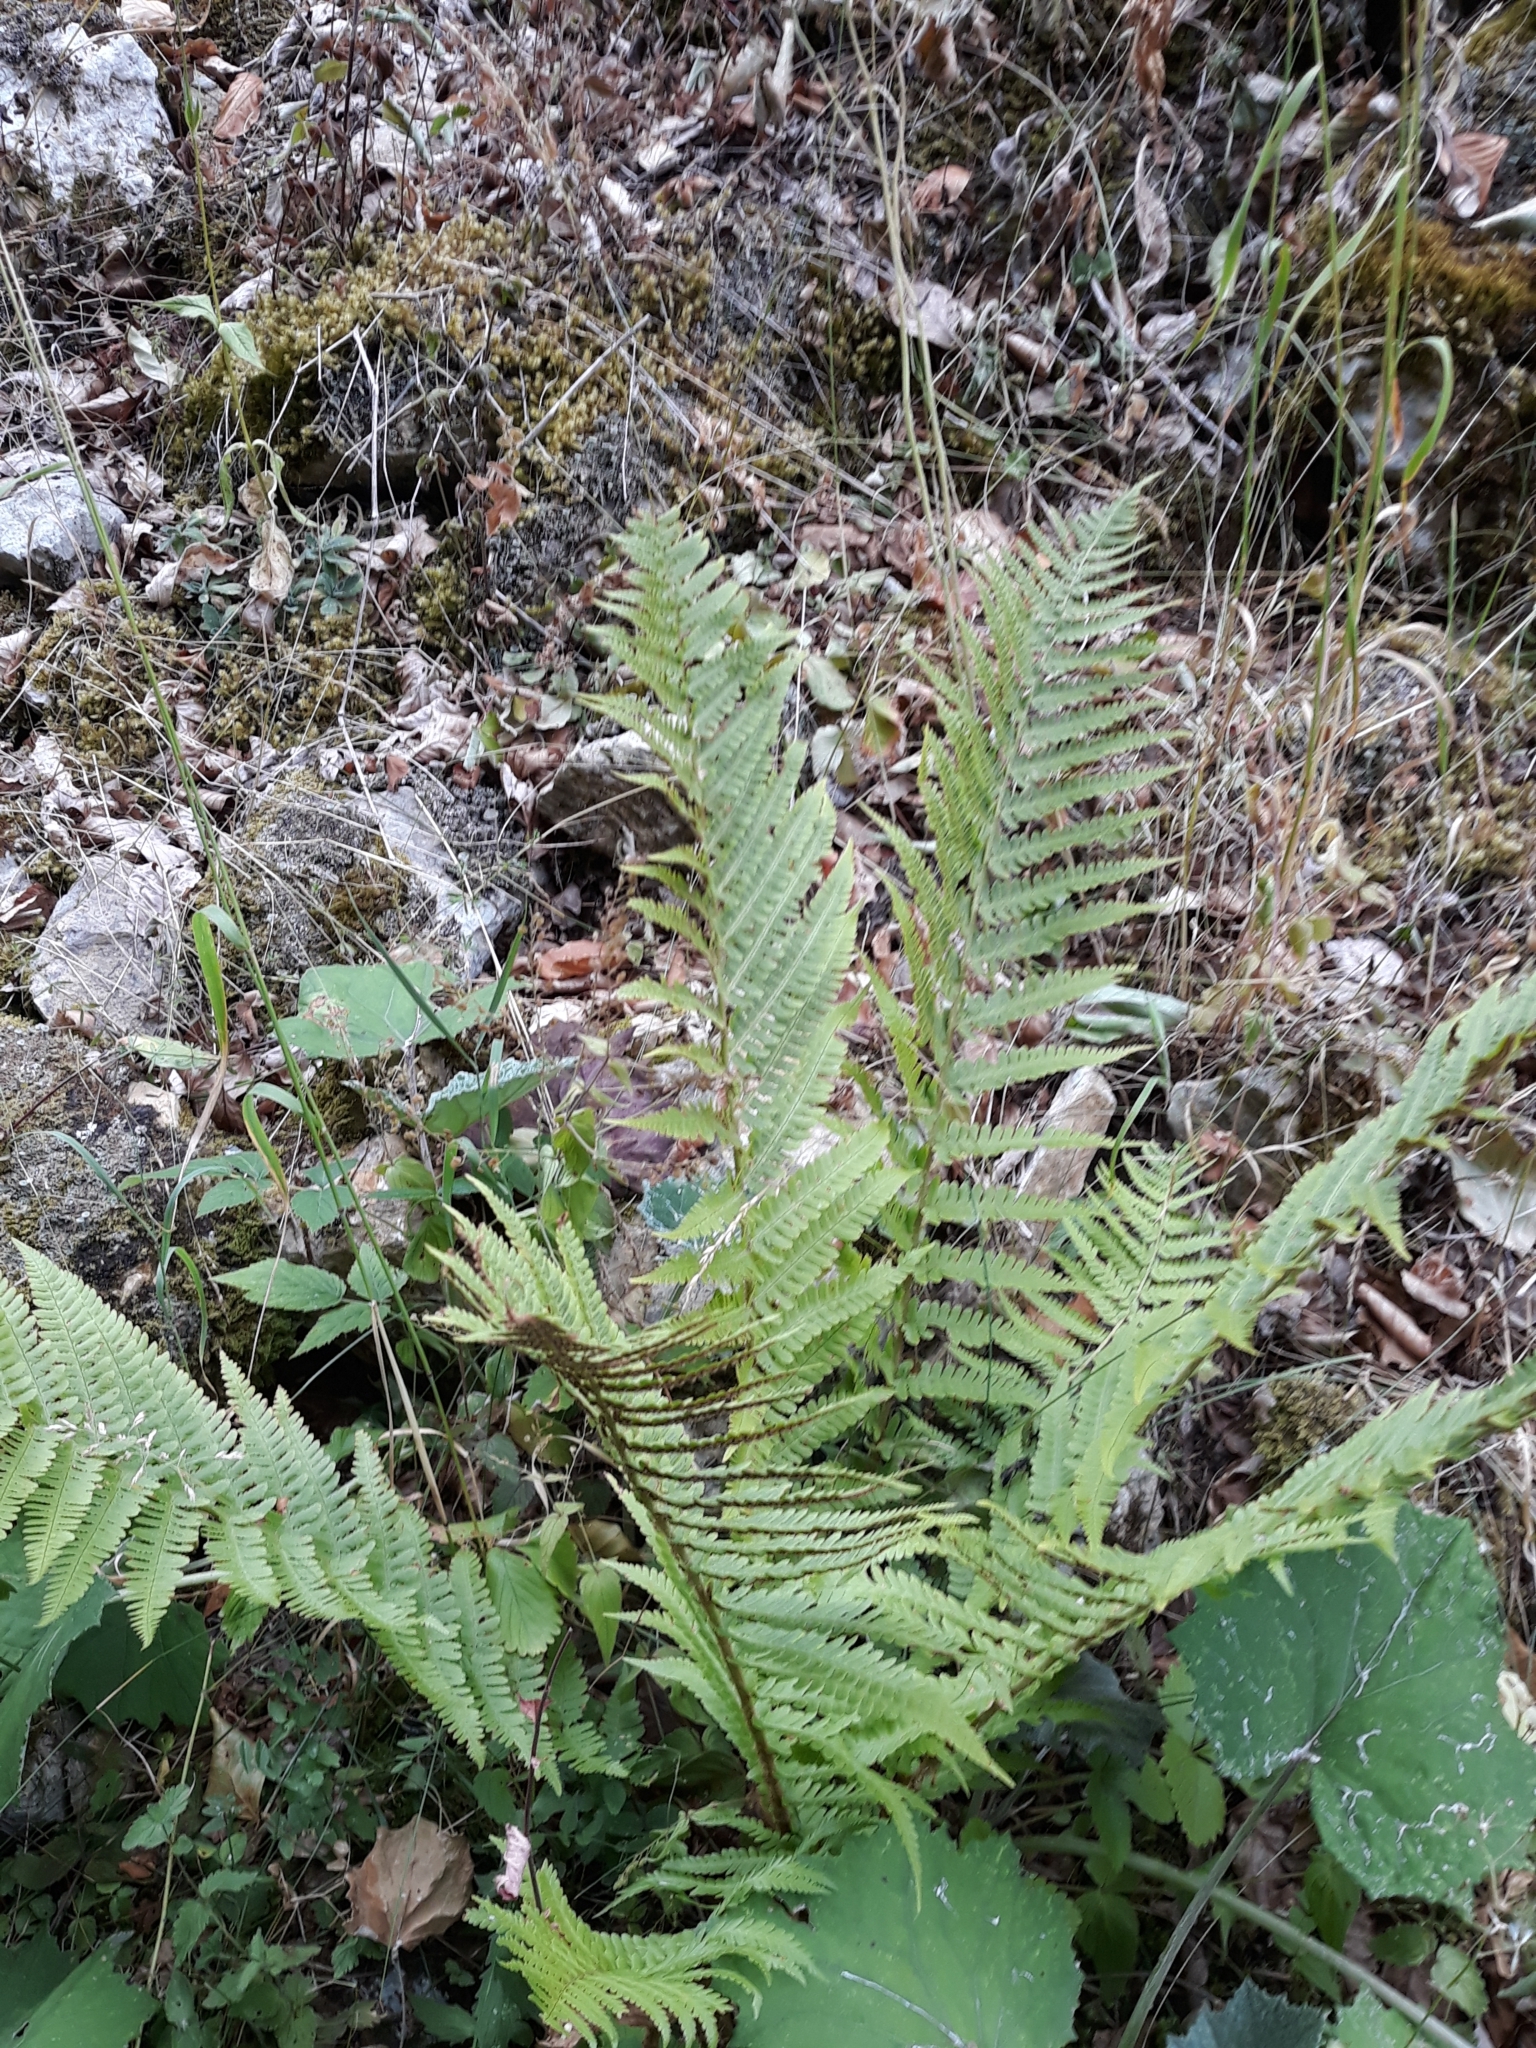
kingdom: Plantae
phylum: Tracheophyta
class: Polypodiopsida
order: Polypodiales
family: Dryopteridaceae
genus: Dryopteris
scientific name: Dryopteris filix-mas
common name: Male fern
